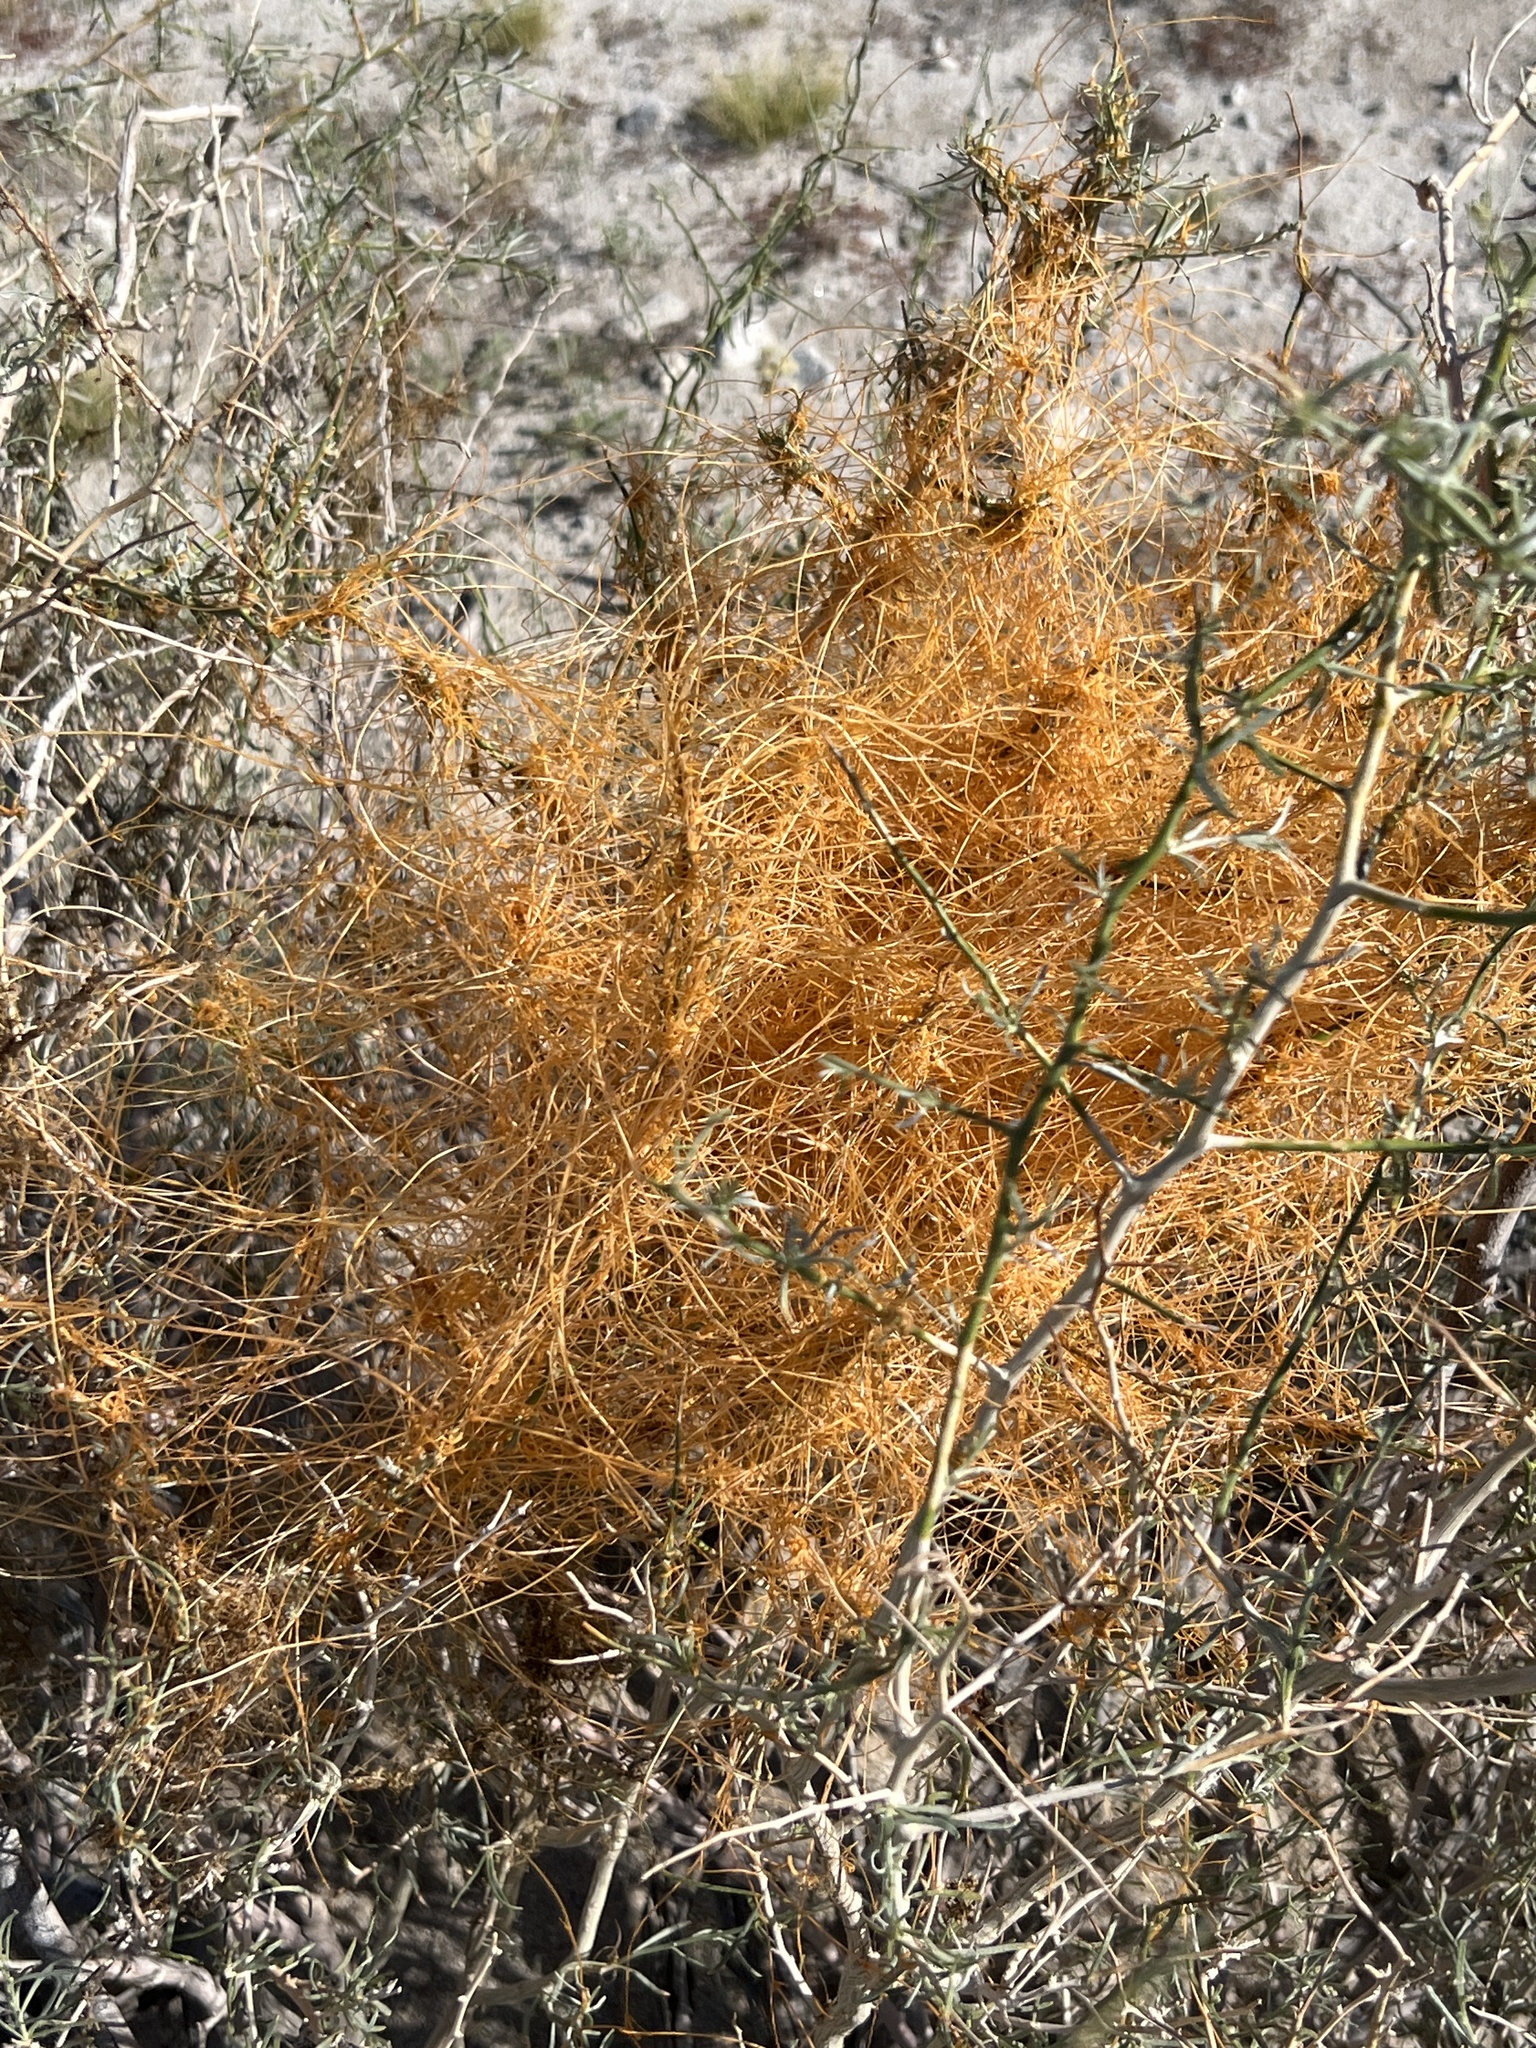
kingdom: Plantae
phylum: Tracheophyta
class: Magnoliopsida
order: Solanales
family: Convolvulaceae
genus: Cuscuta
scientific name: Cuscuta psorothamnensis
